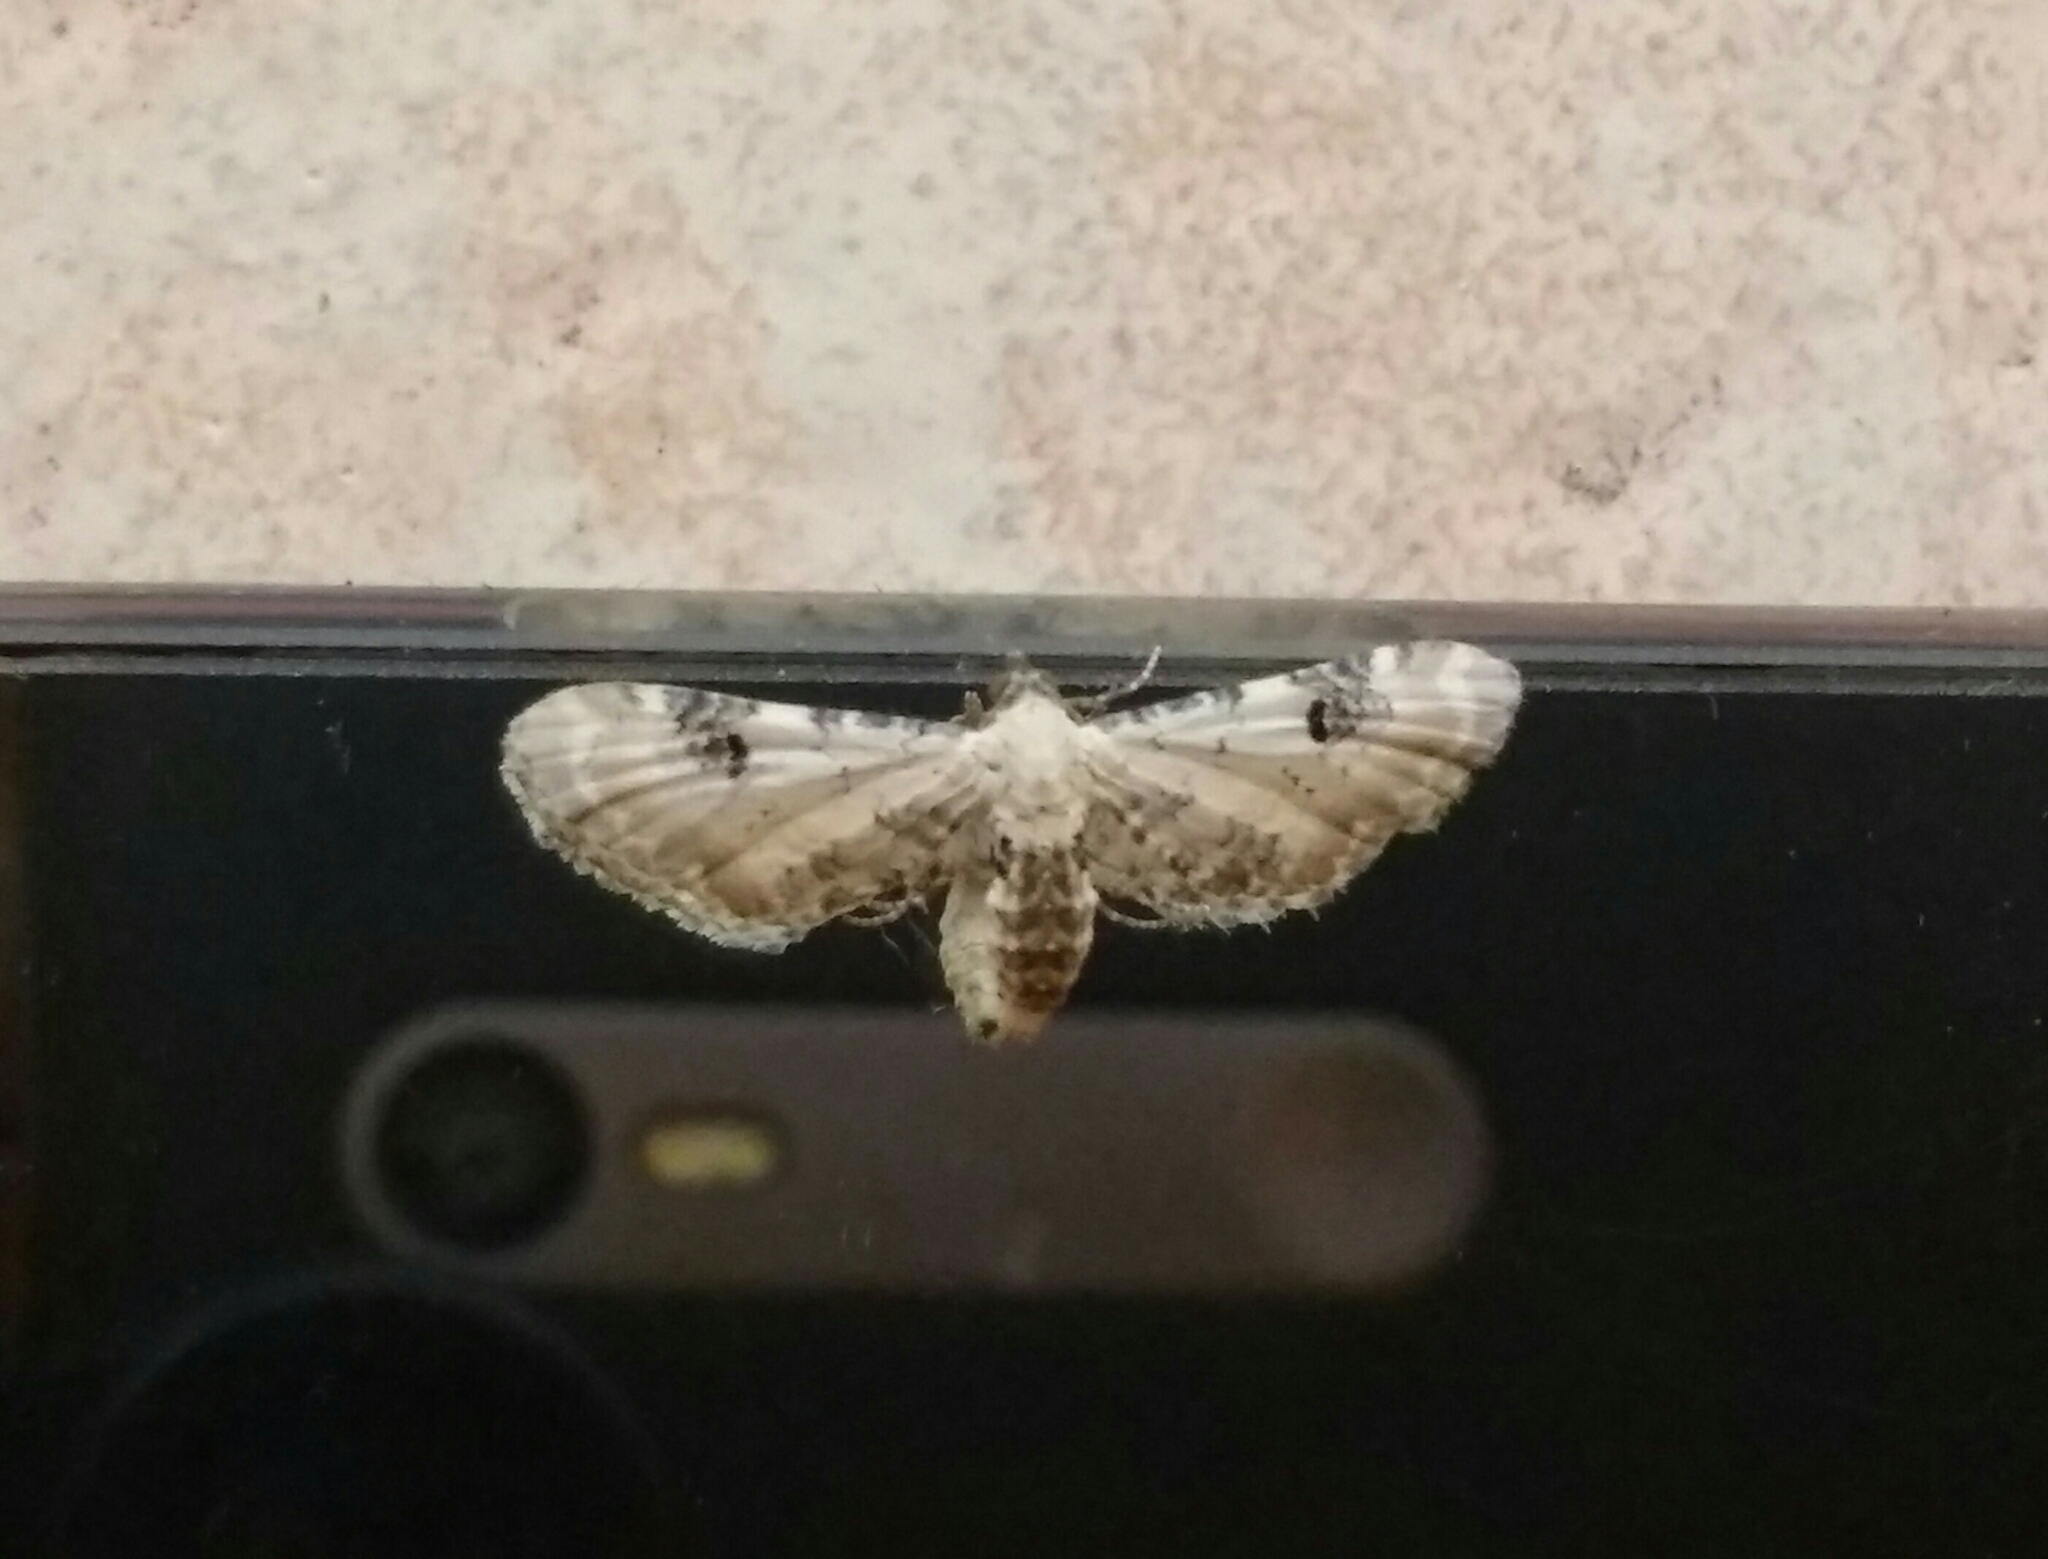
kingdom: Animalia
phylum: Arthropoda
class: Insecta
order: Lepidoptera
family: Geometridae
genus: Eupithecia
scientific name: Eupithecia centaureata
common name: Lime-speck pug
